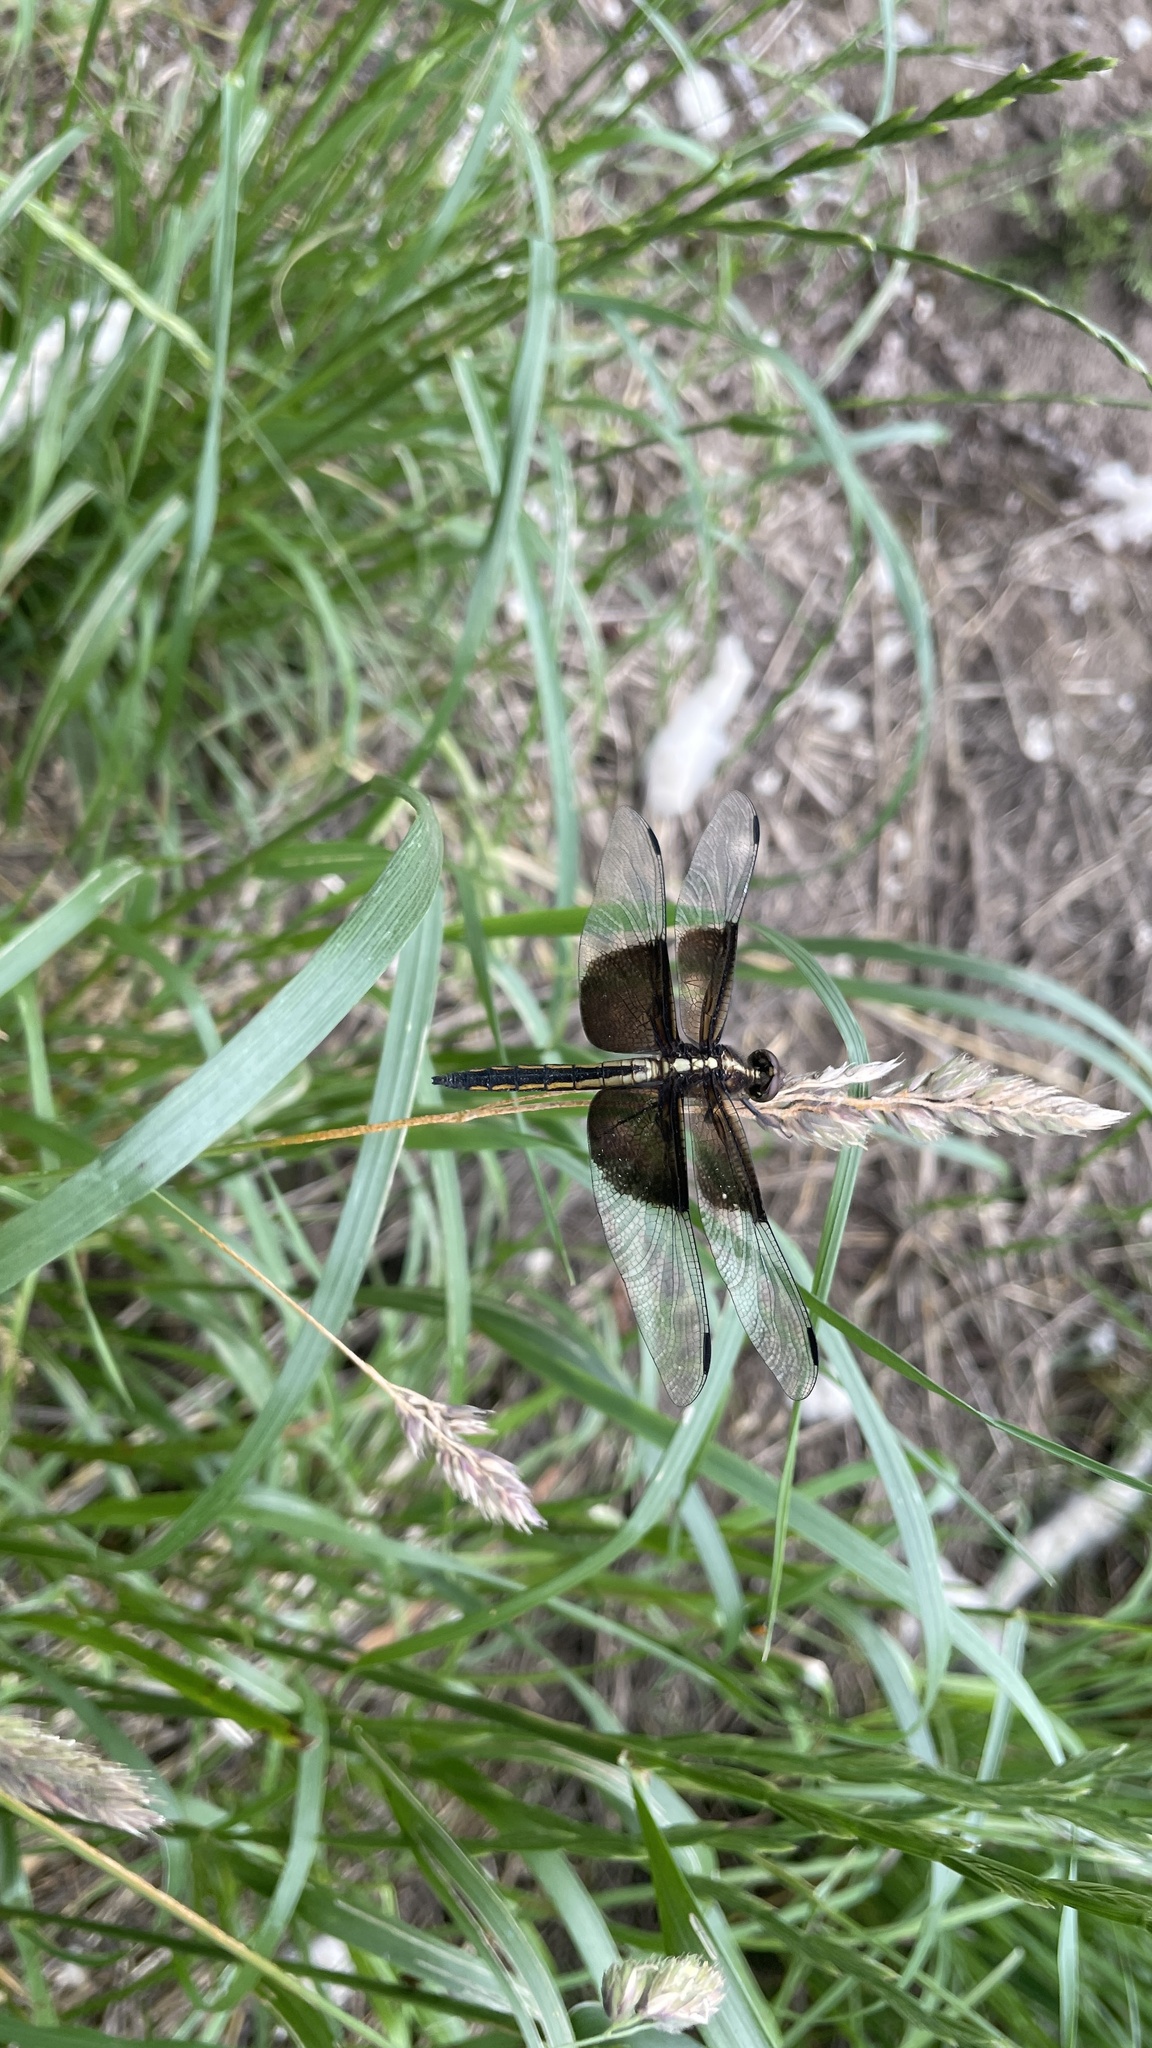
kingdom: Animalia
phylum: Arthropoda
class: Insecta
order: Odonata
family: Libellulidae
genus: Libellula
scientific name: Libellula luctuosa
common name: Widow skimmer
